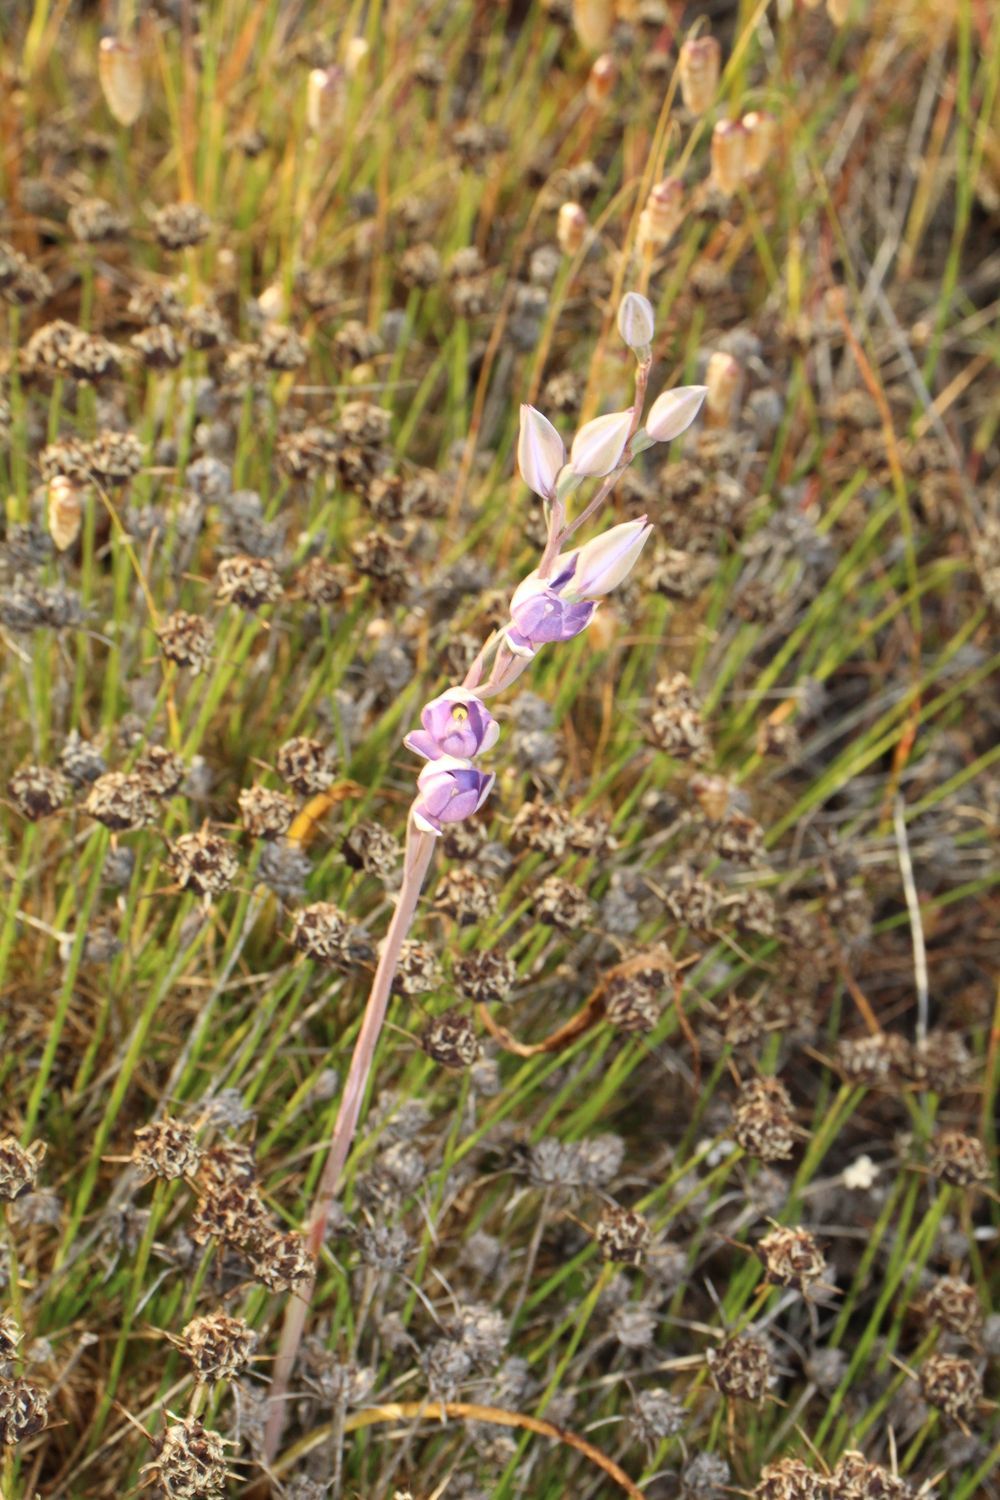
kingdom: Plantae
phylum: Tracheophyta
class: Liliopsida
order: Asparagales
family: Orchidaceae
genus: Thelymitra
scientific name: Thelymitra petrophila
